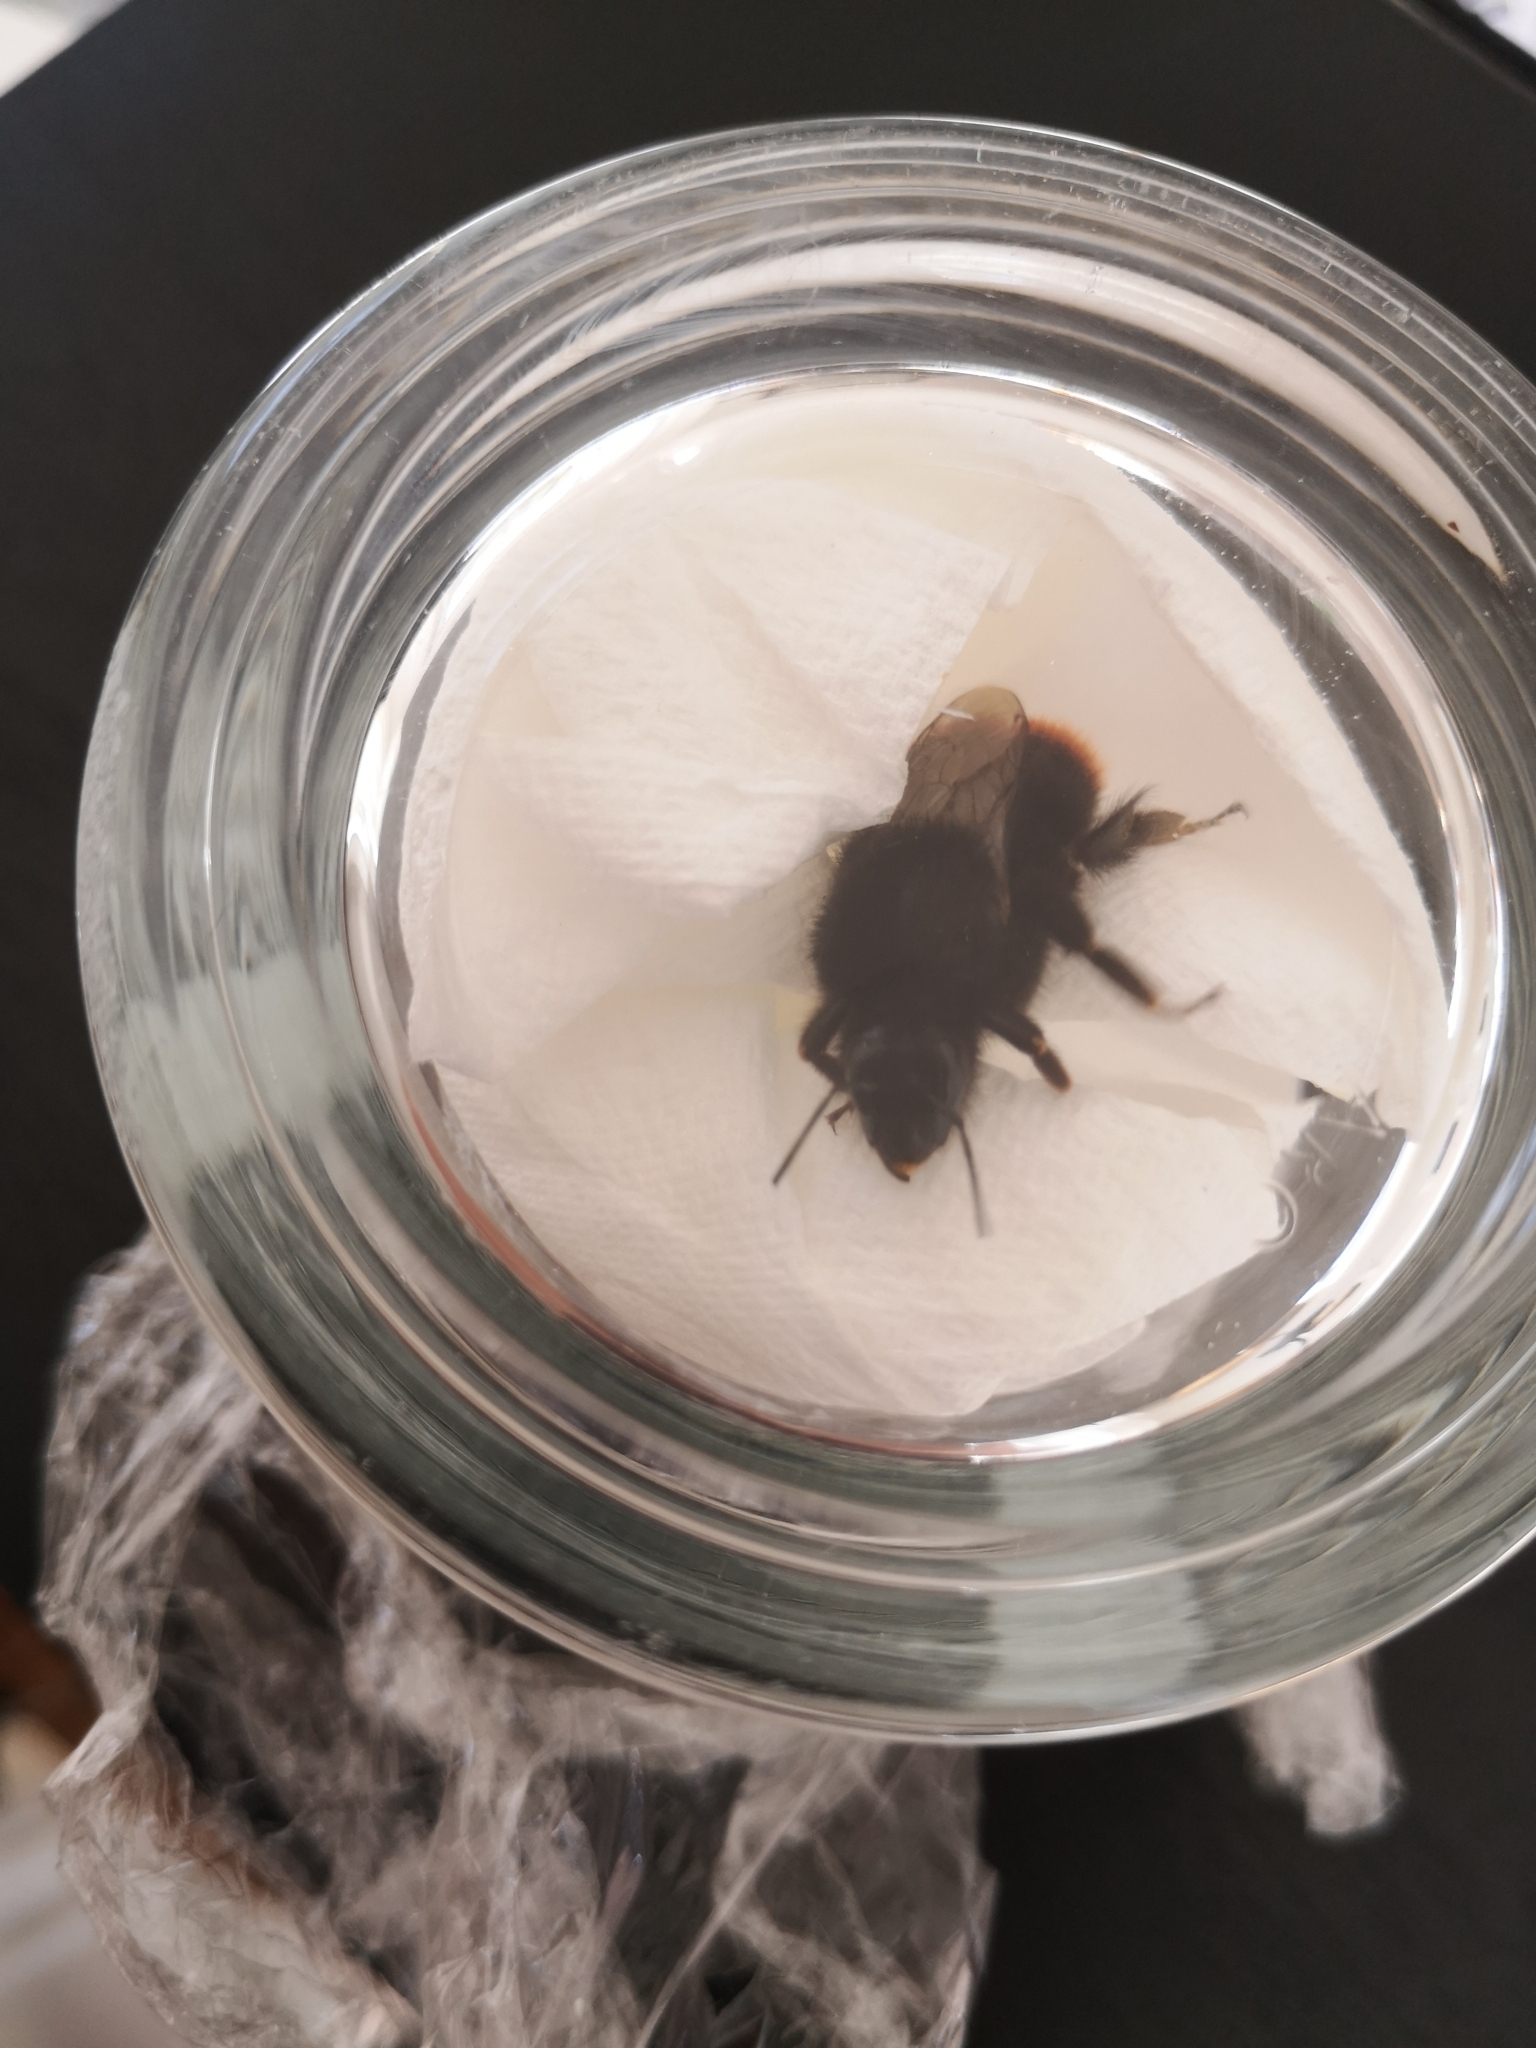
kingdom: Animalia
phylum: Arthropoda
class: Insecta
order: Hymenoptera
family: Apidae
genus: Bombus
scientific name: Bombus lapidarius
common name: Large red-tailed humble-bee
